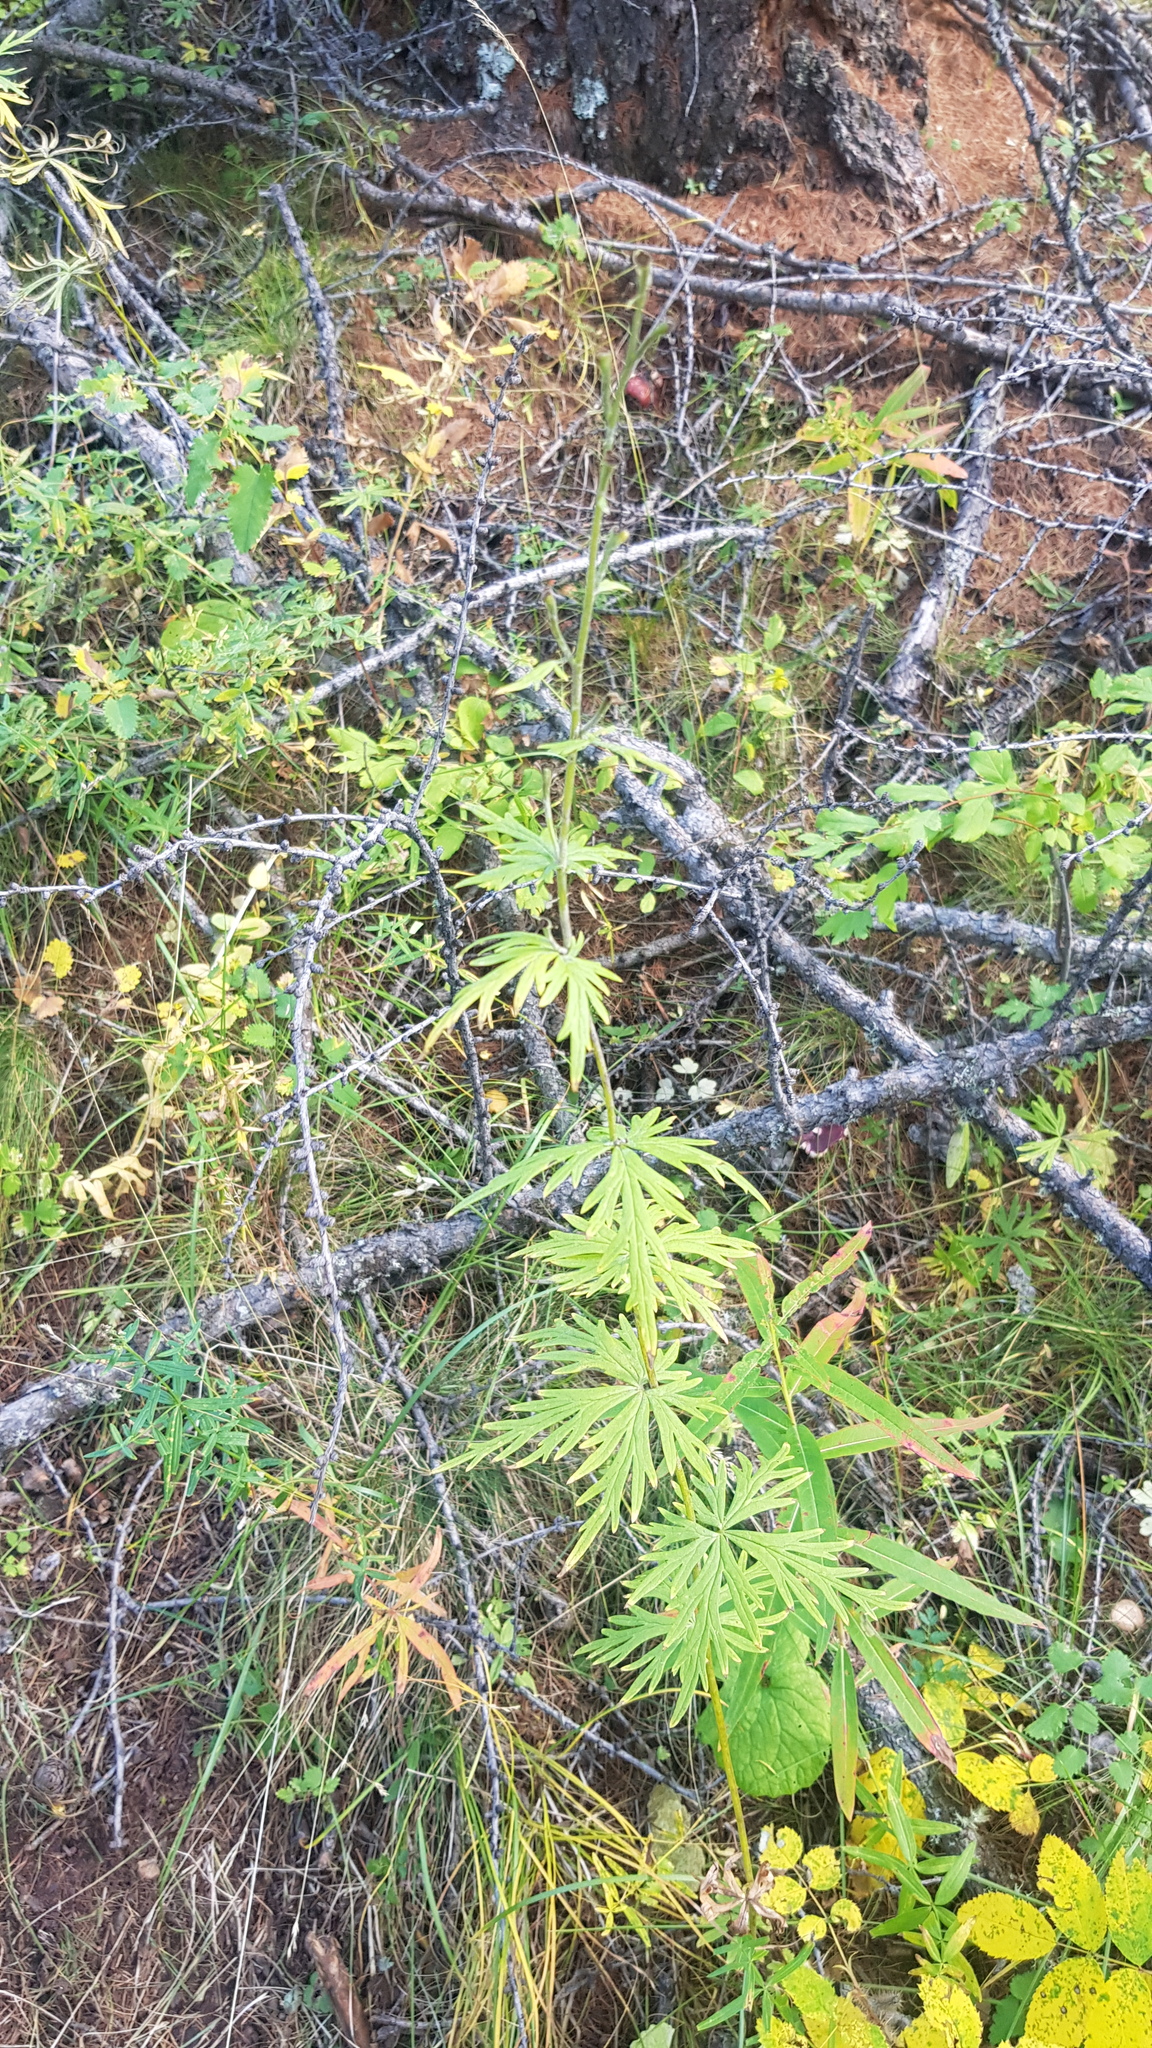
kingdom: Plantae
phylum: Tracheophyta
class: Magnoliopsida
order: Ranunculales
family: Ranunculaceae
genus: Aconitum
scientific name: Aconitum baicalense
